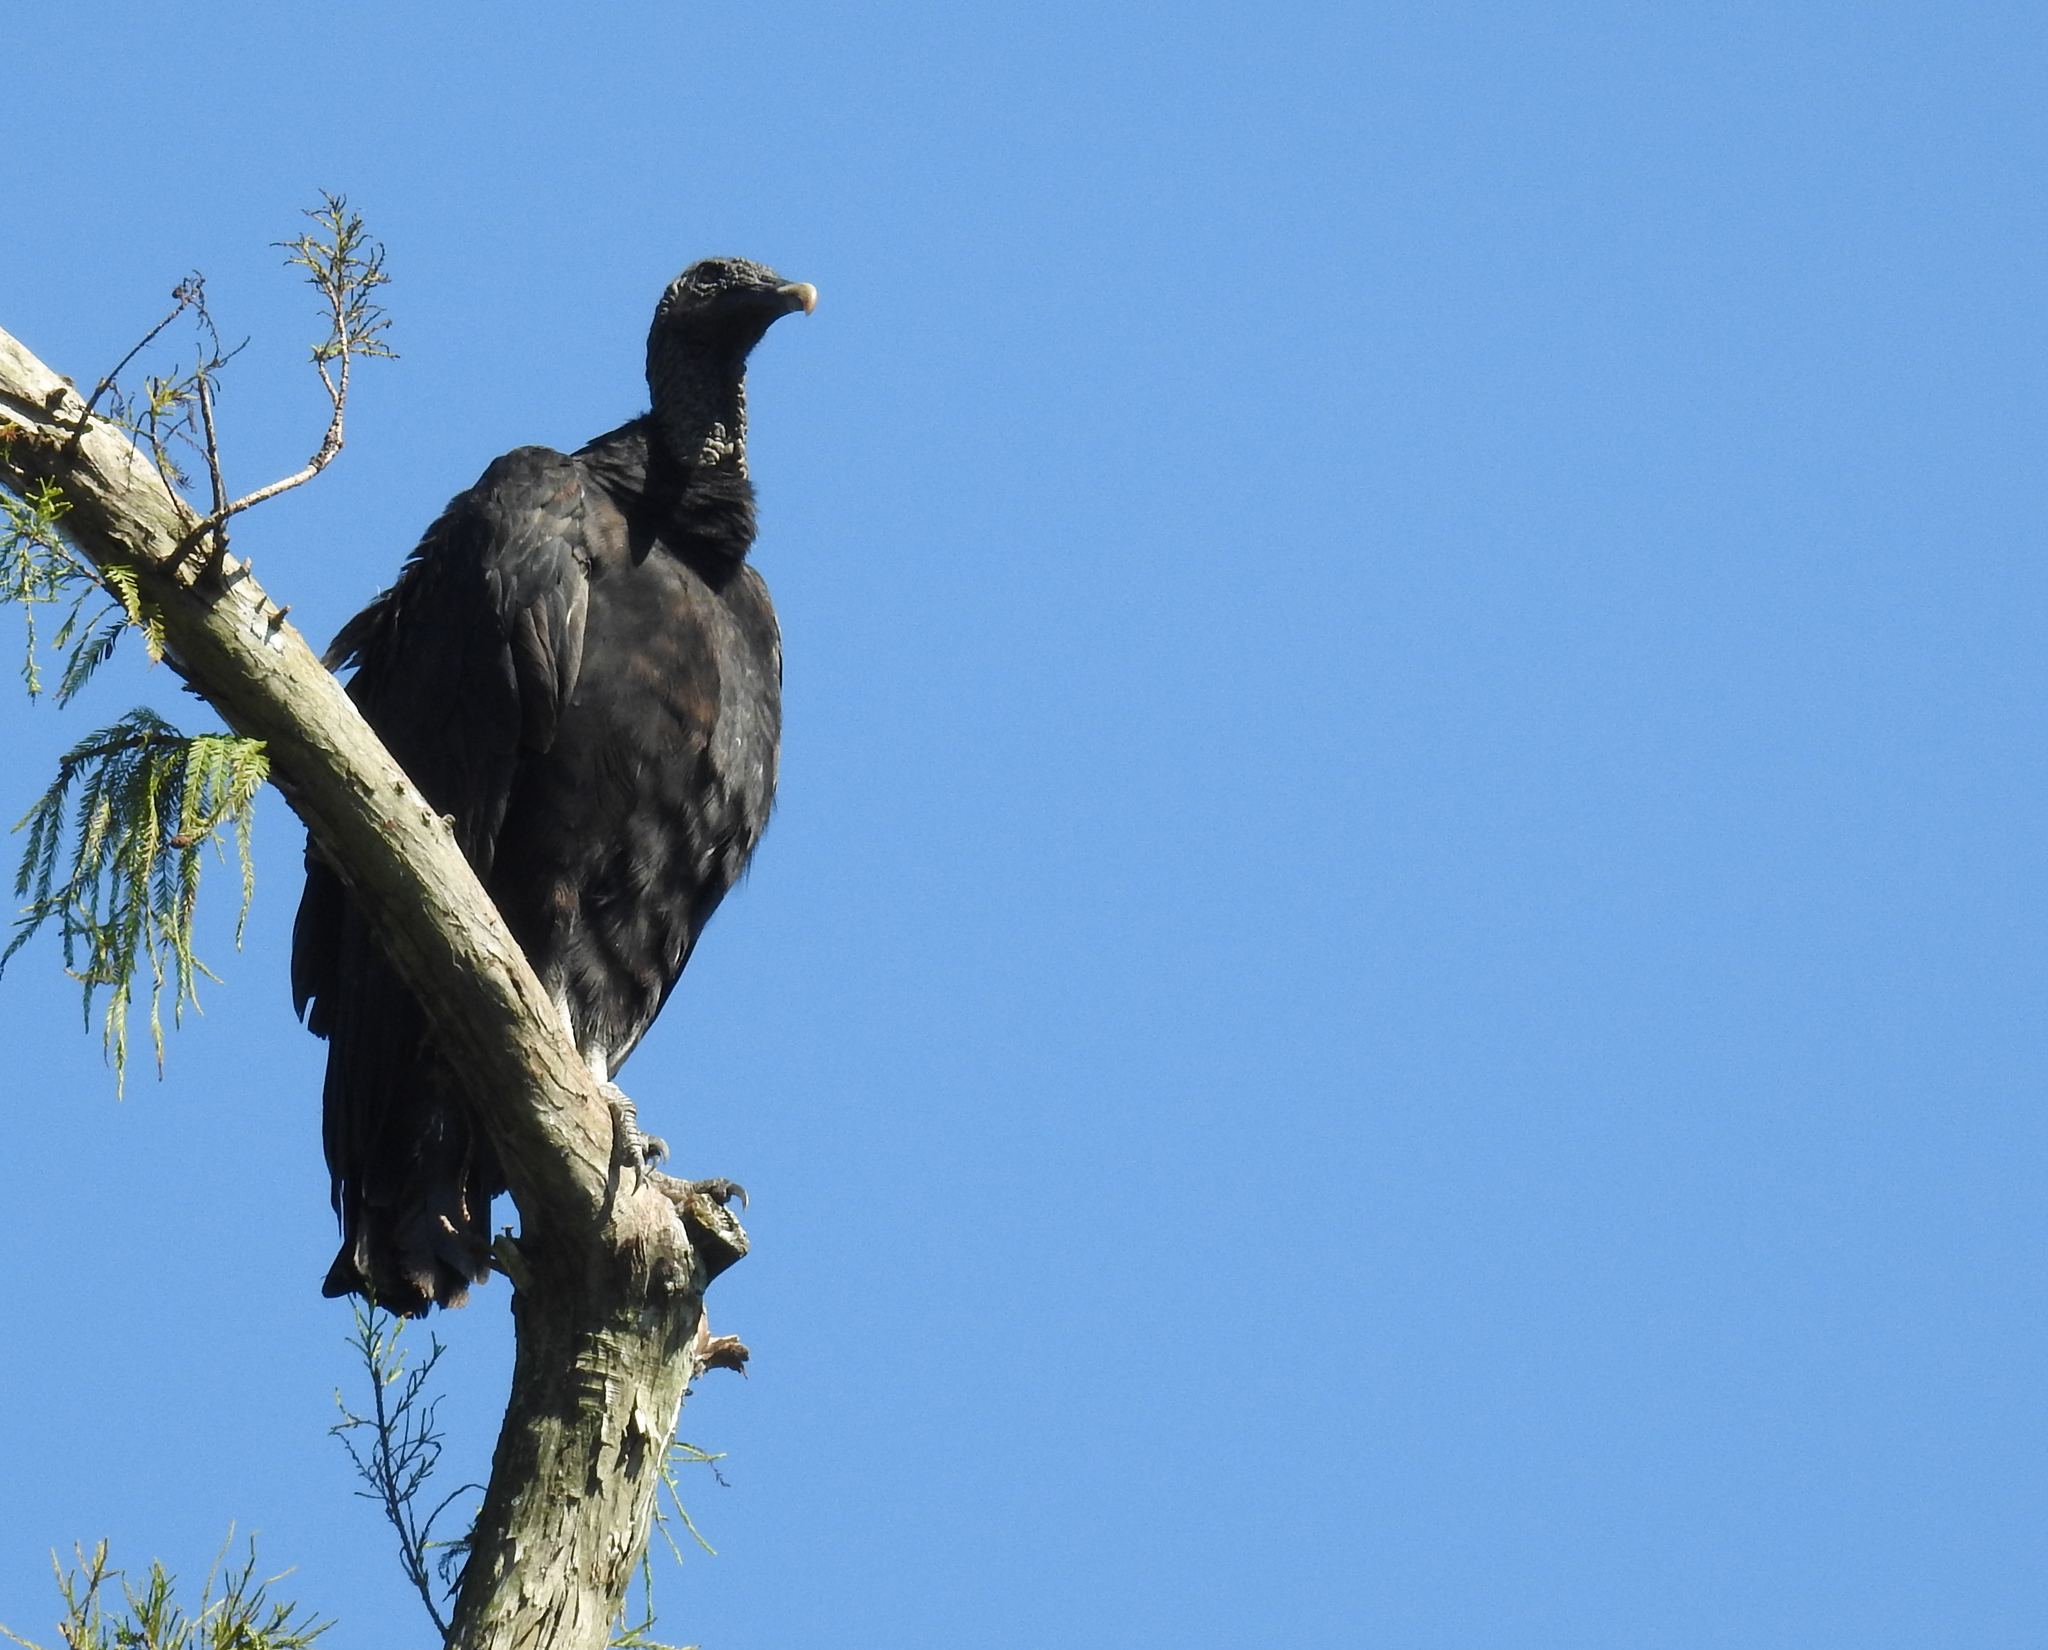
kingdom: Animalia
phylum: Chordata
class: Aves
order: Accipitriformes
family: Cathartidae
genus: Coragyps
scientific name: Coragyps atratus
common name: Black vulture
